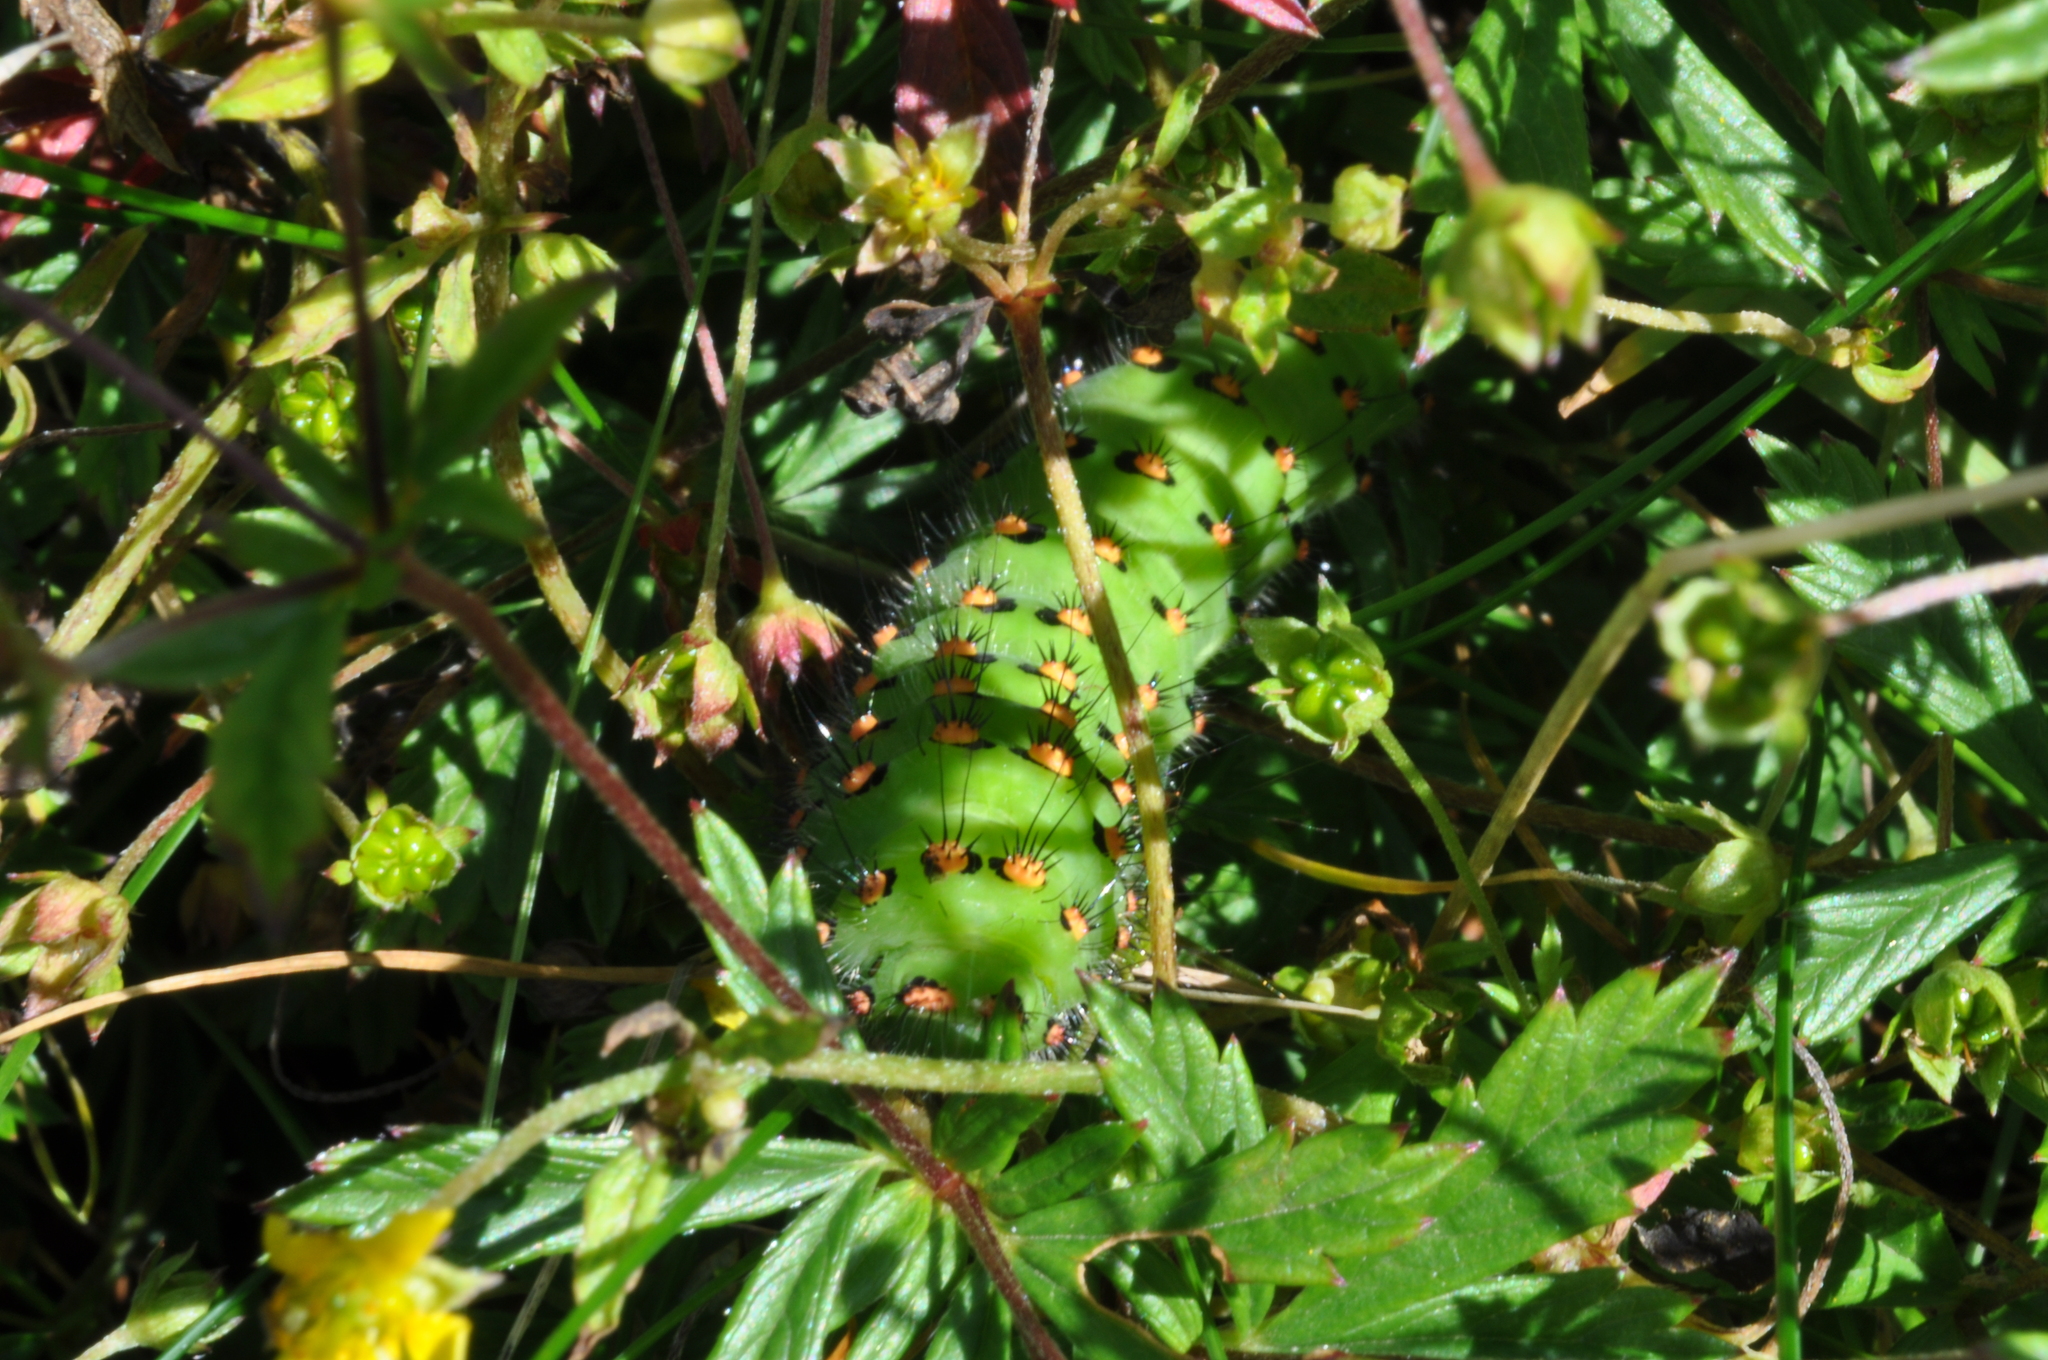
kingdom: Animalia
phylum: Arthropoda
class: Insecta
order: Lepidoptera
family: Saturniidae
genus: Saturnia
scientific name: Saturnia pavonia
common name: Emperor moth
